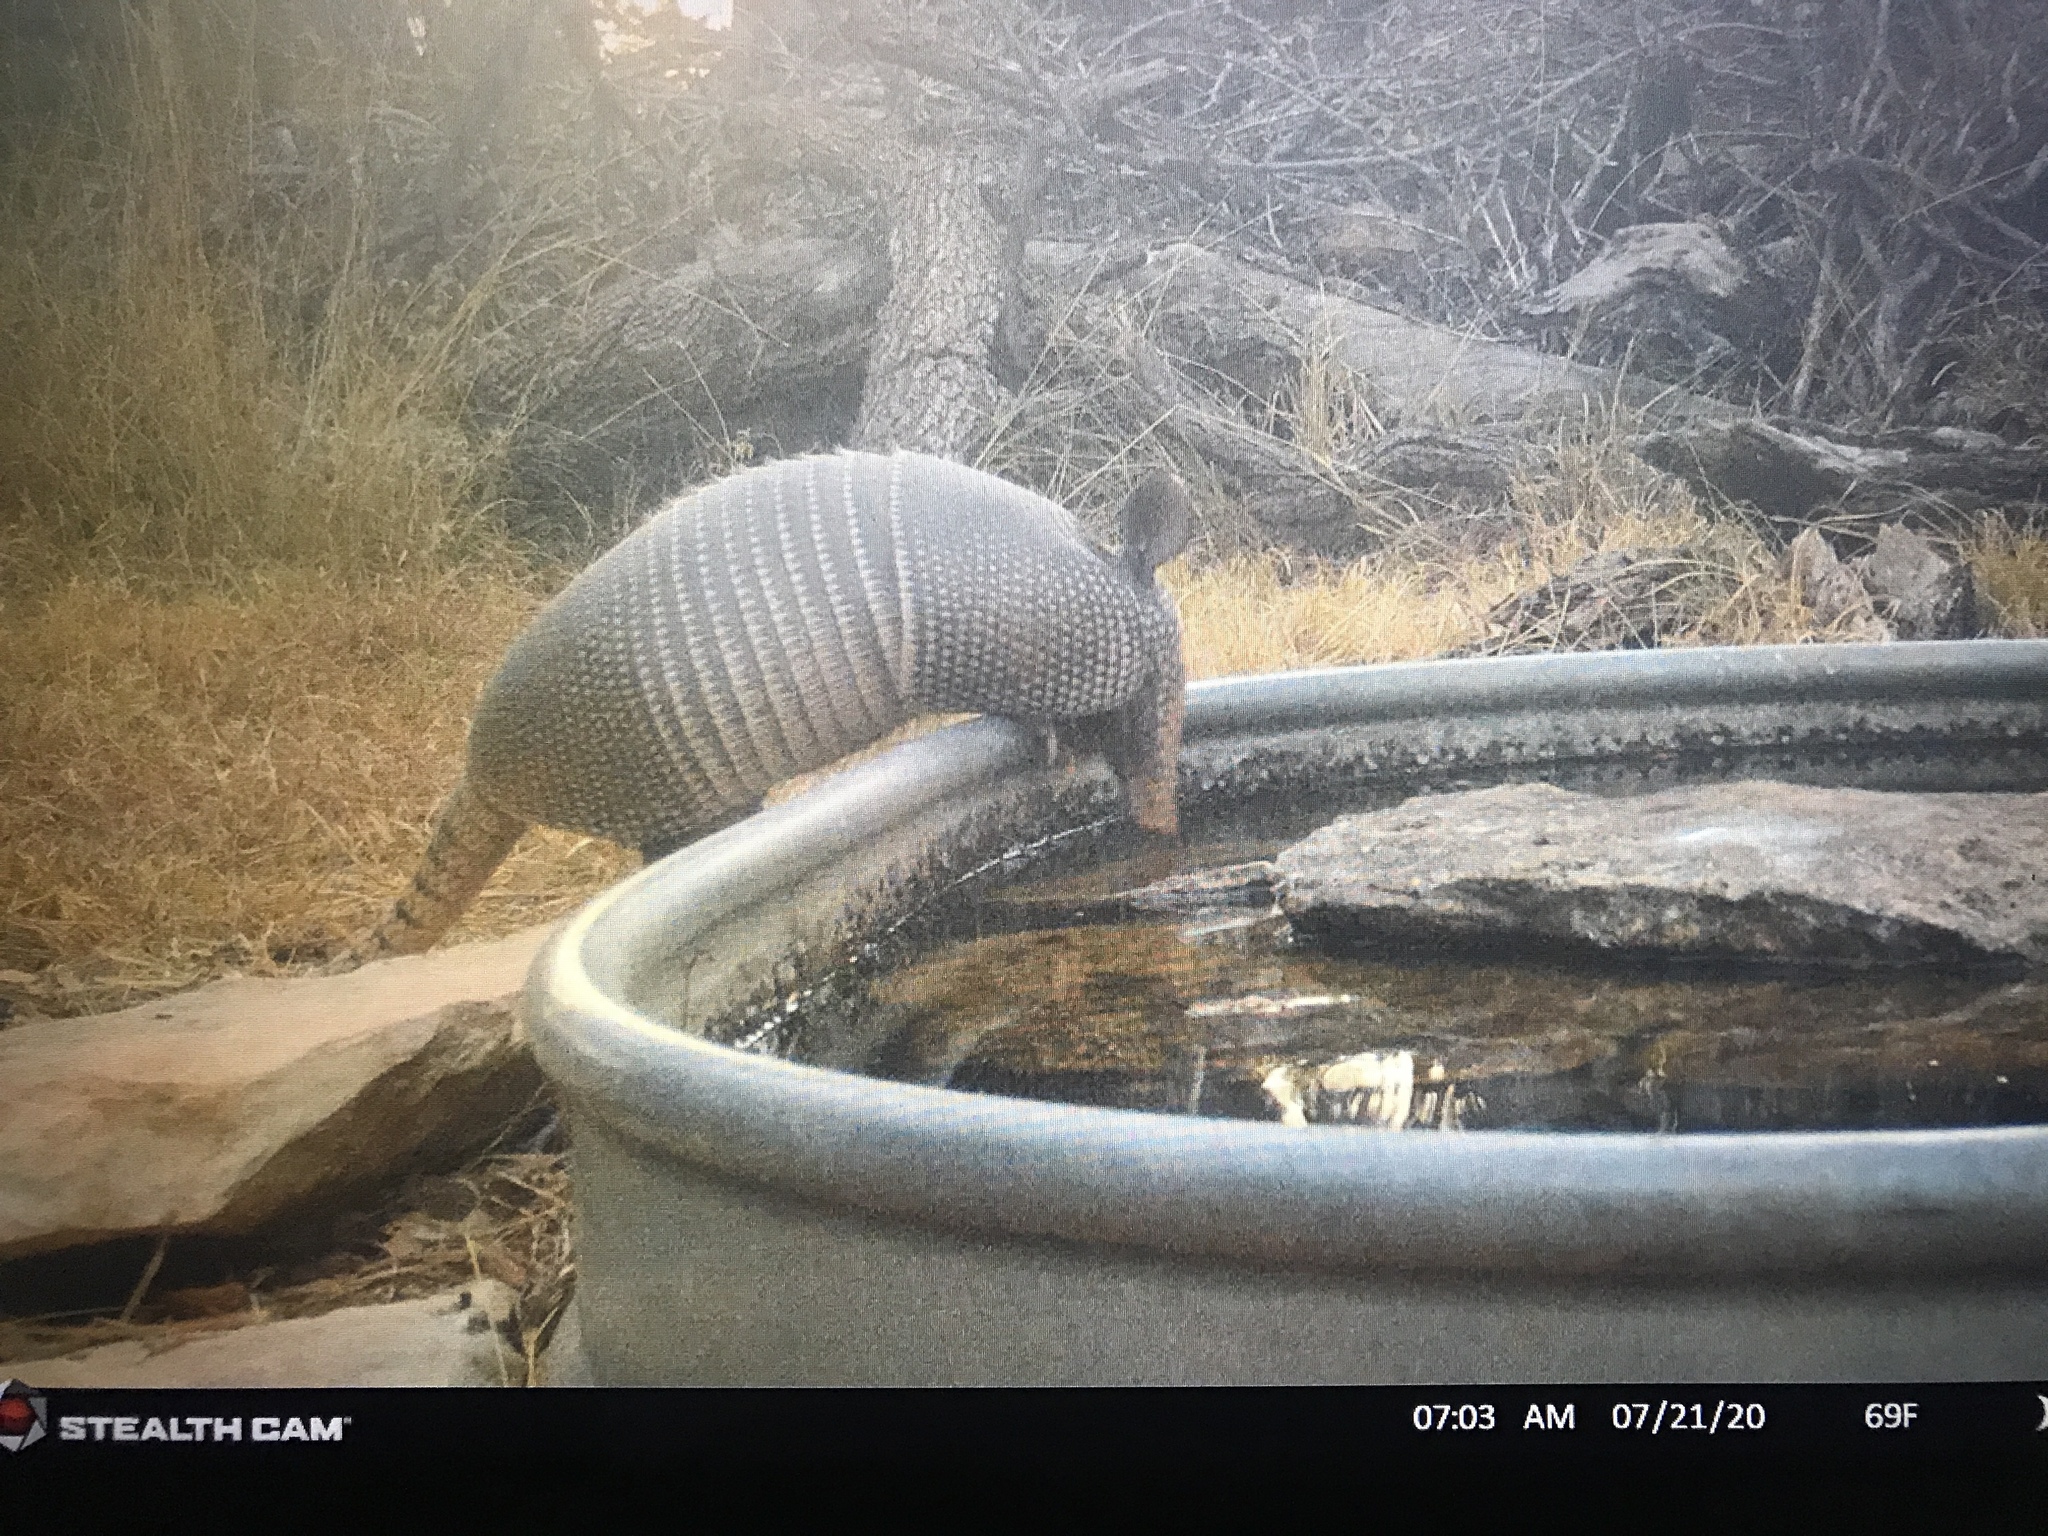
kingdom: Animalia
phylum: Chordata
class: Mammalia
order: Cingulata
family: Dasypodidae
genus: Dasypus
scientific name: Dasypus novemcinctus
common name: Nine-banded armadillo
